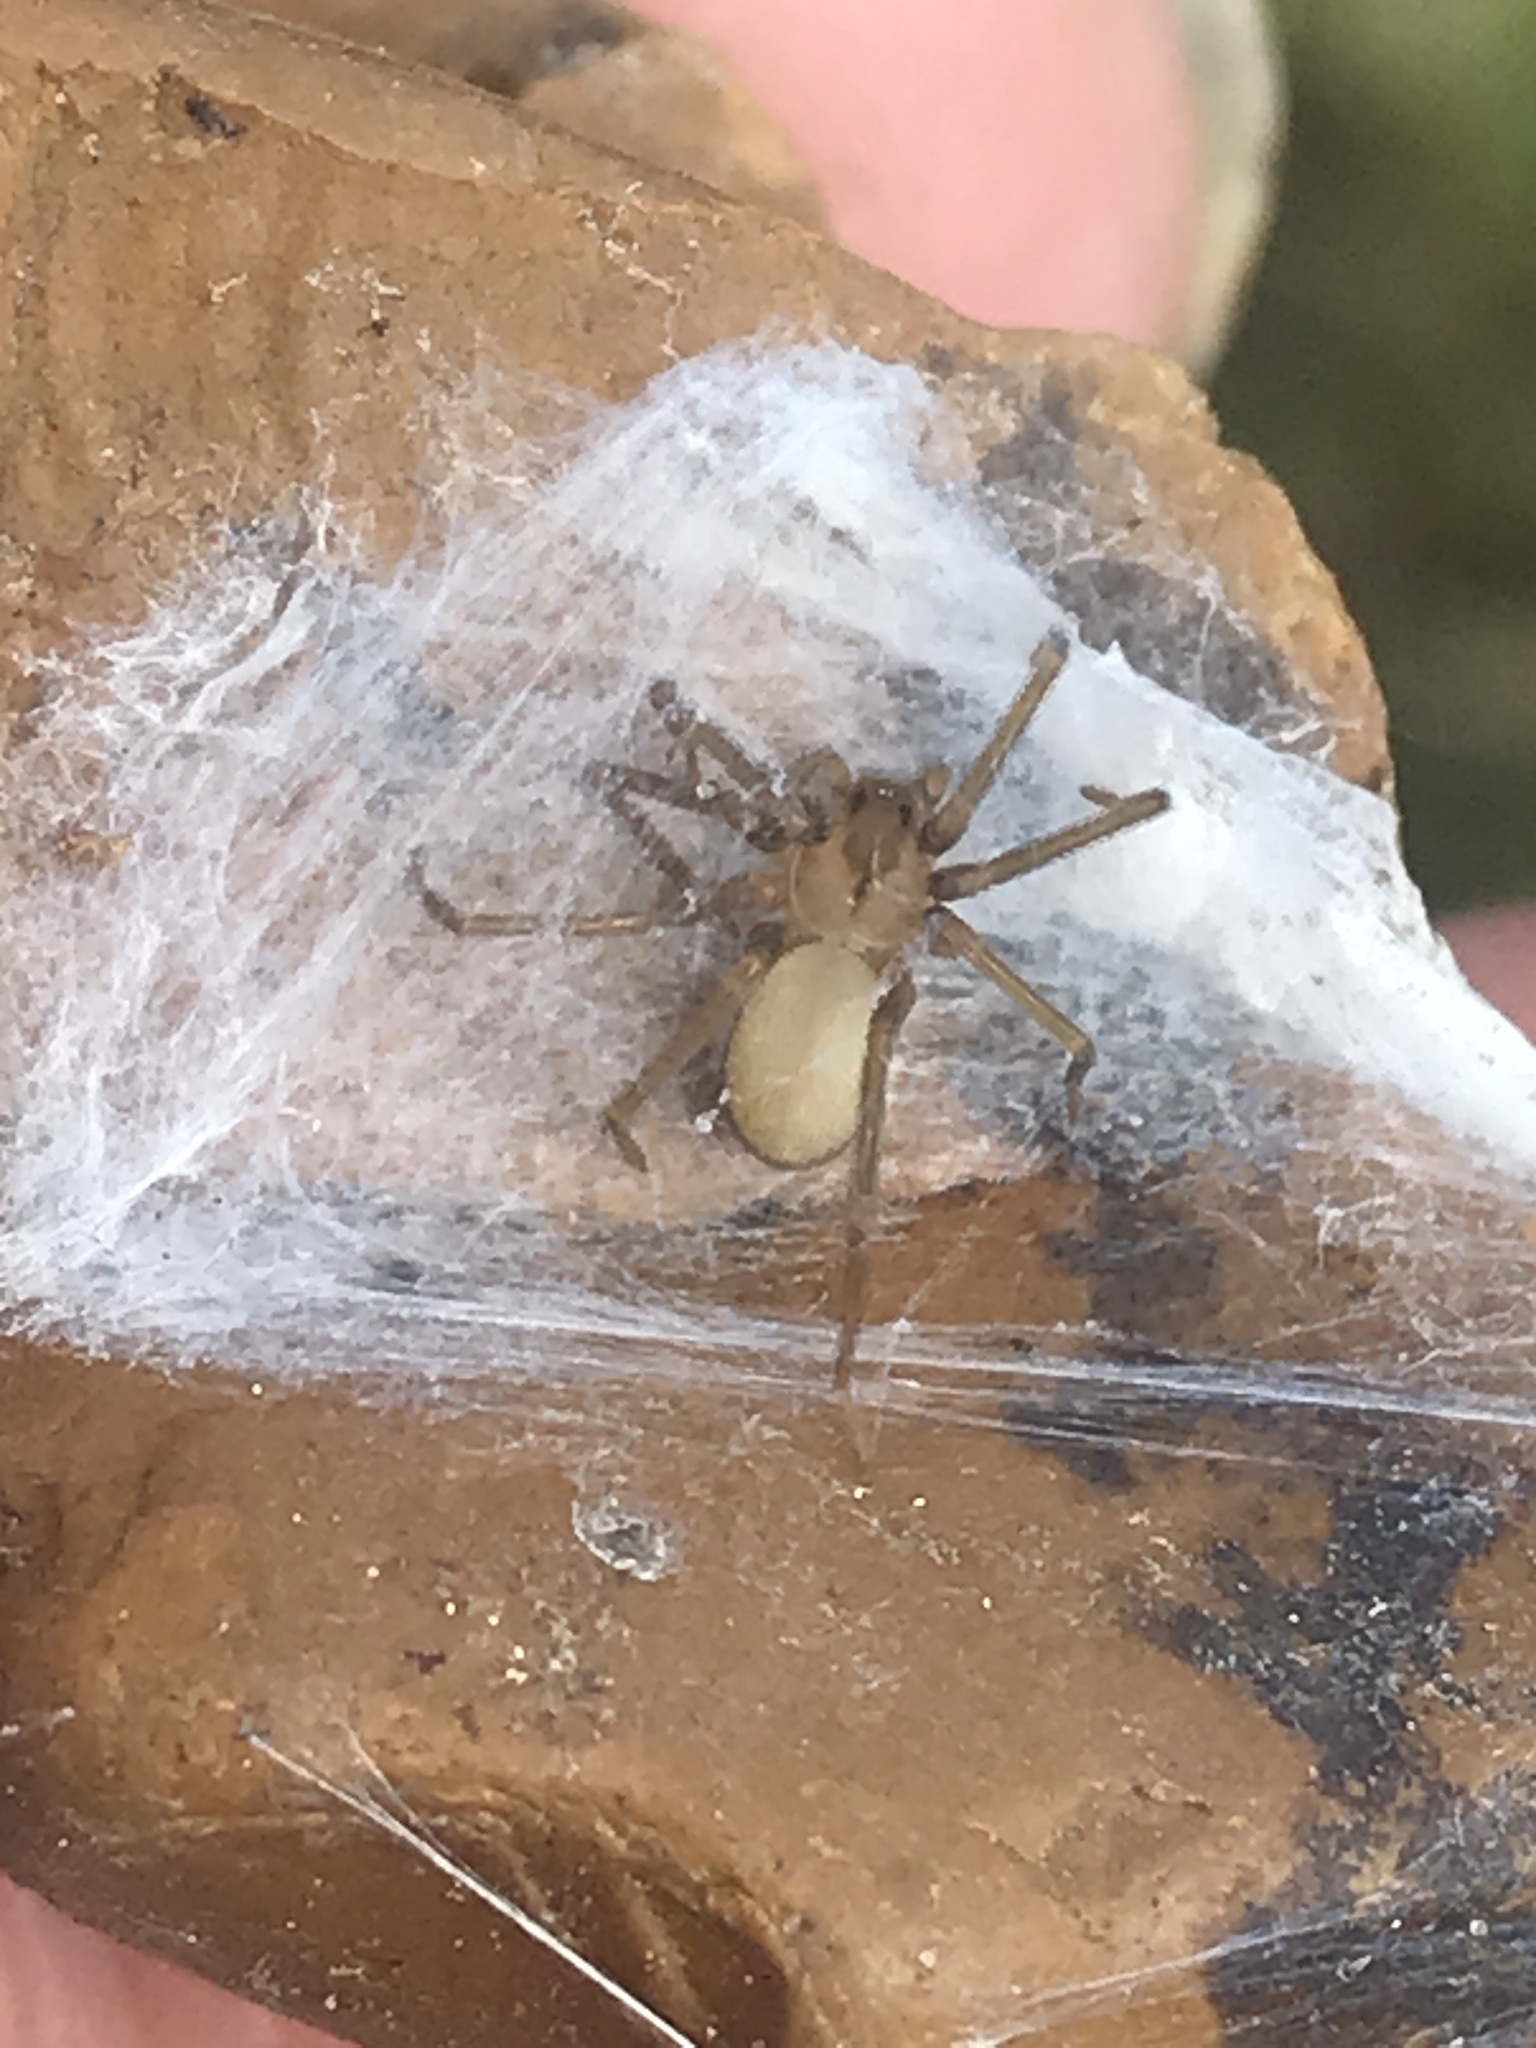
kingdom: Animalia
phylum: Arthropoda
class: Arachnida
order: Araneae
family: Sicariidae
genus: Loxosceles
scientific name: Loxosceles reclusa
